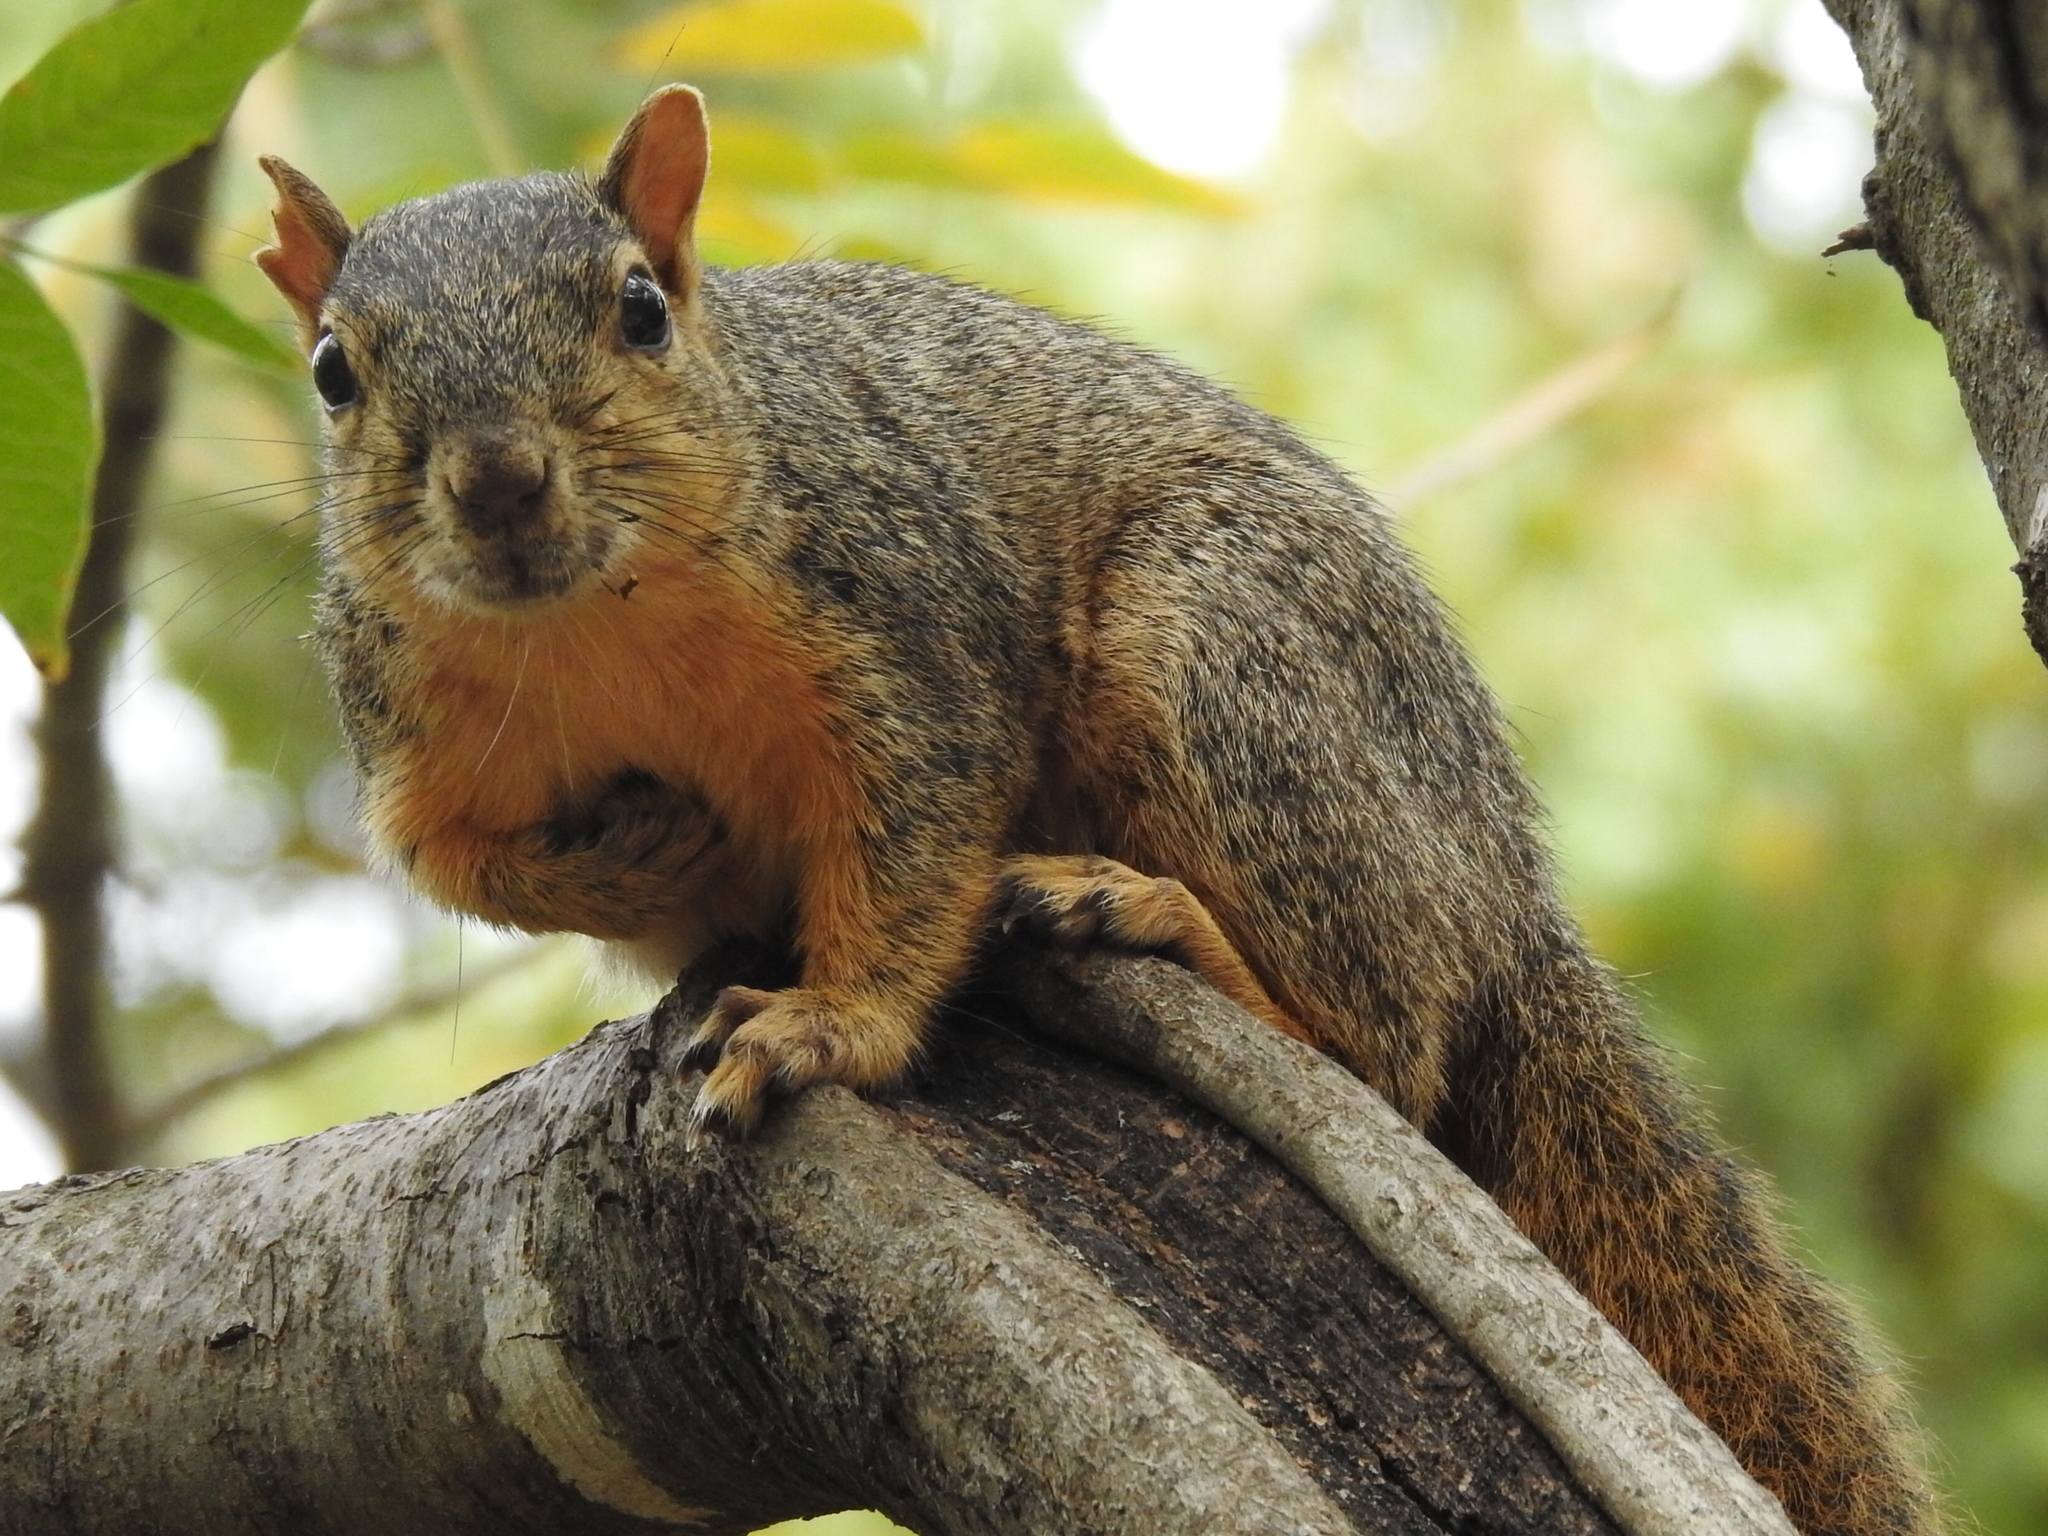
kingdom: Animalia
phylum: Chordata
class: Mammalia
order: Rodentia
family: Sciuridae
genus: Sciurus
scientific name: Sciurus niger
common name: Fox squirrel
